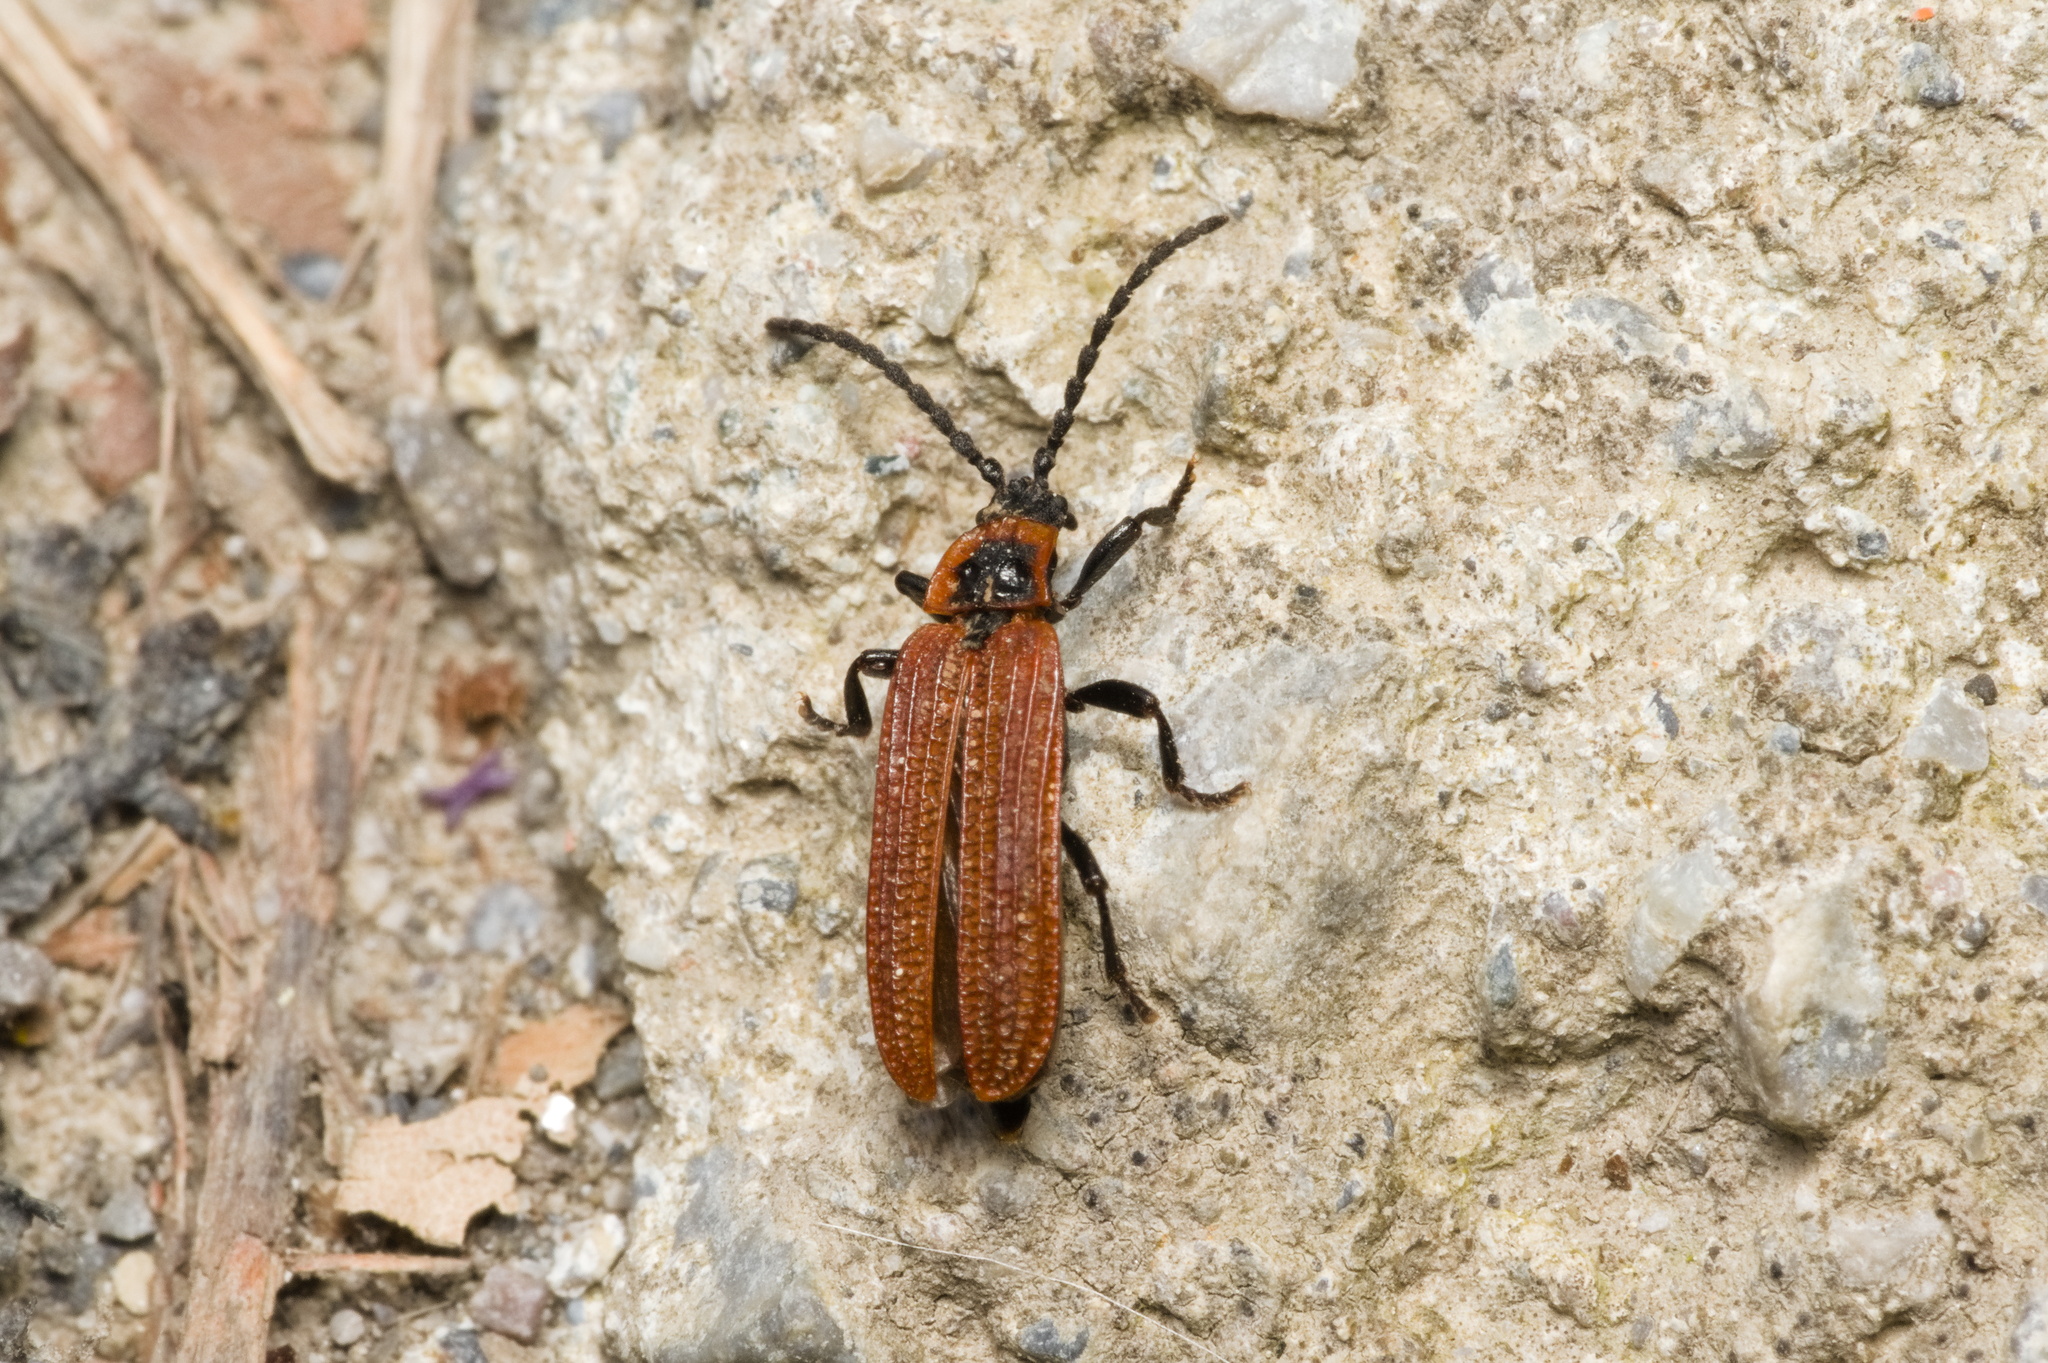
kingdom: Animalia
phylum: Arthropoda
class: Insecta
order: Coleoptera
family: Lycidae
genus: Erotides
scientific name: Erotides cosnardi
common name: Cosnard's net-winged beetle
